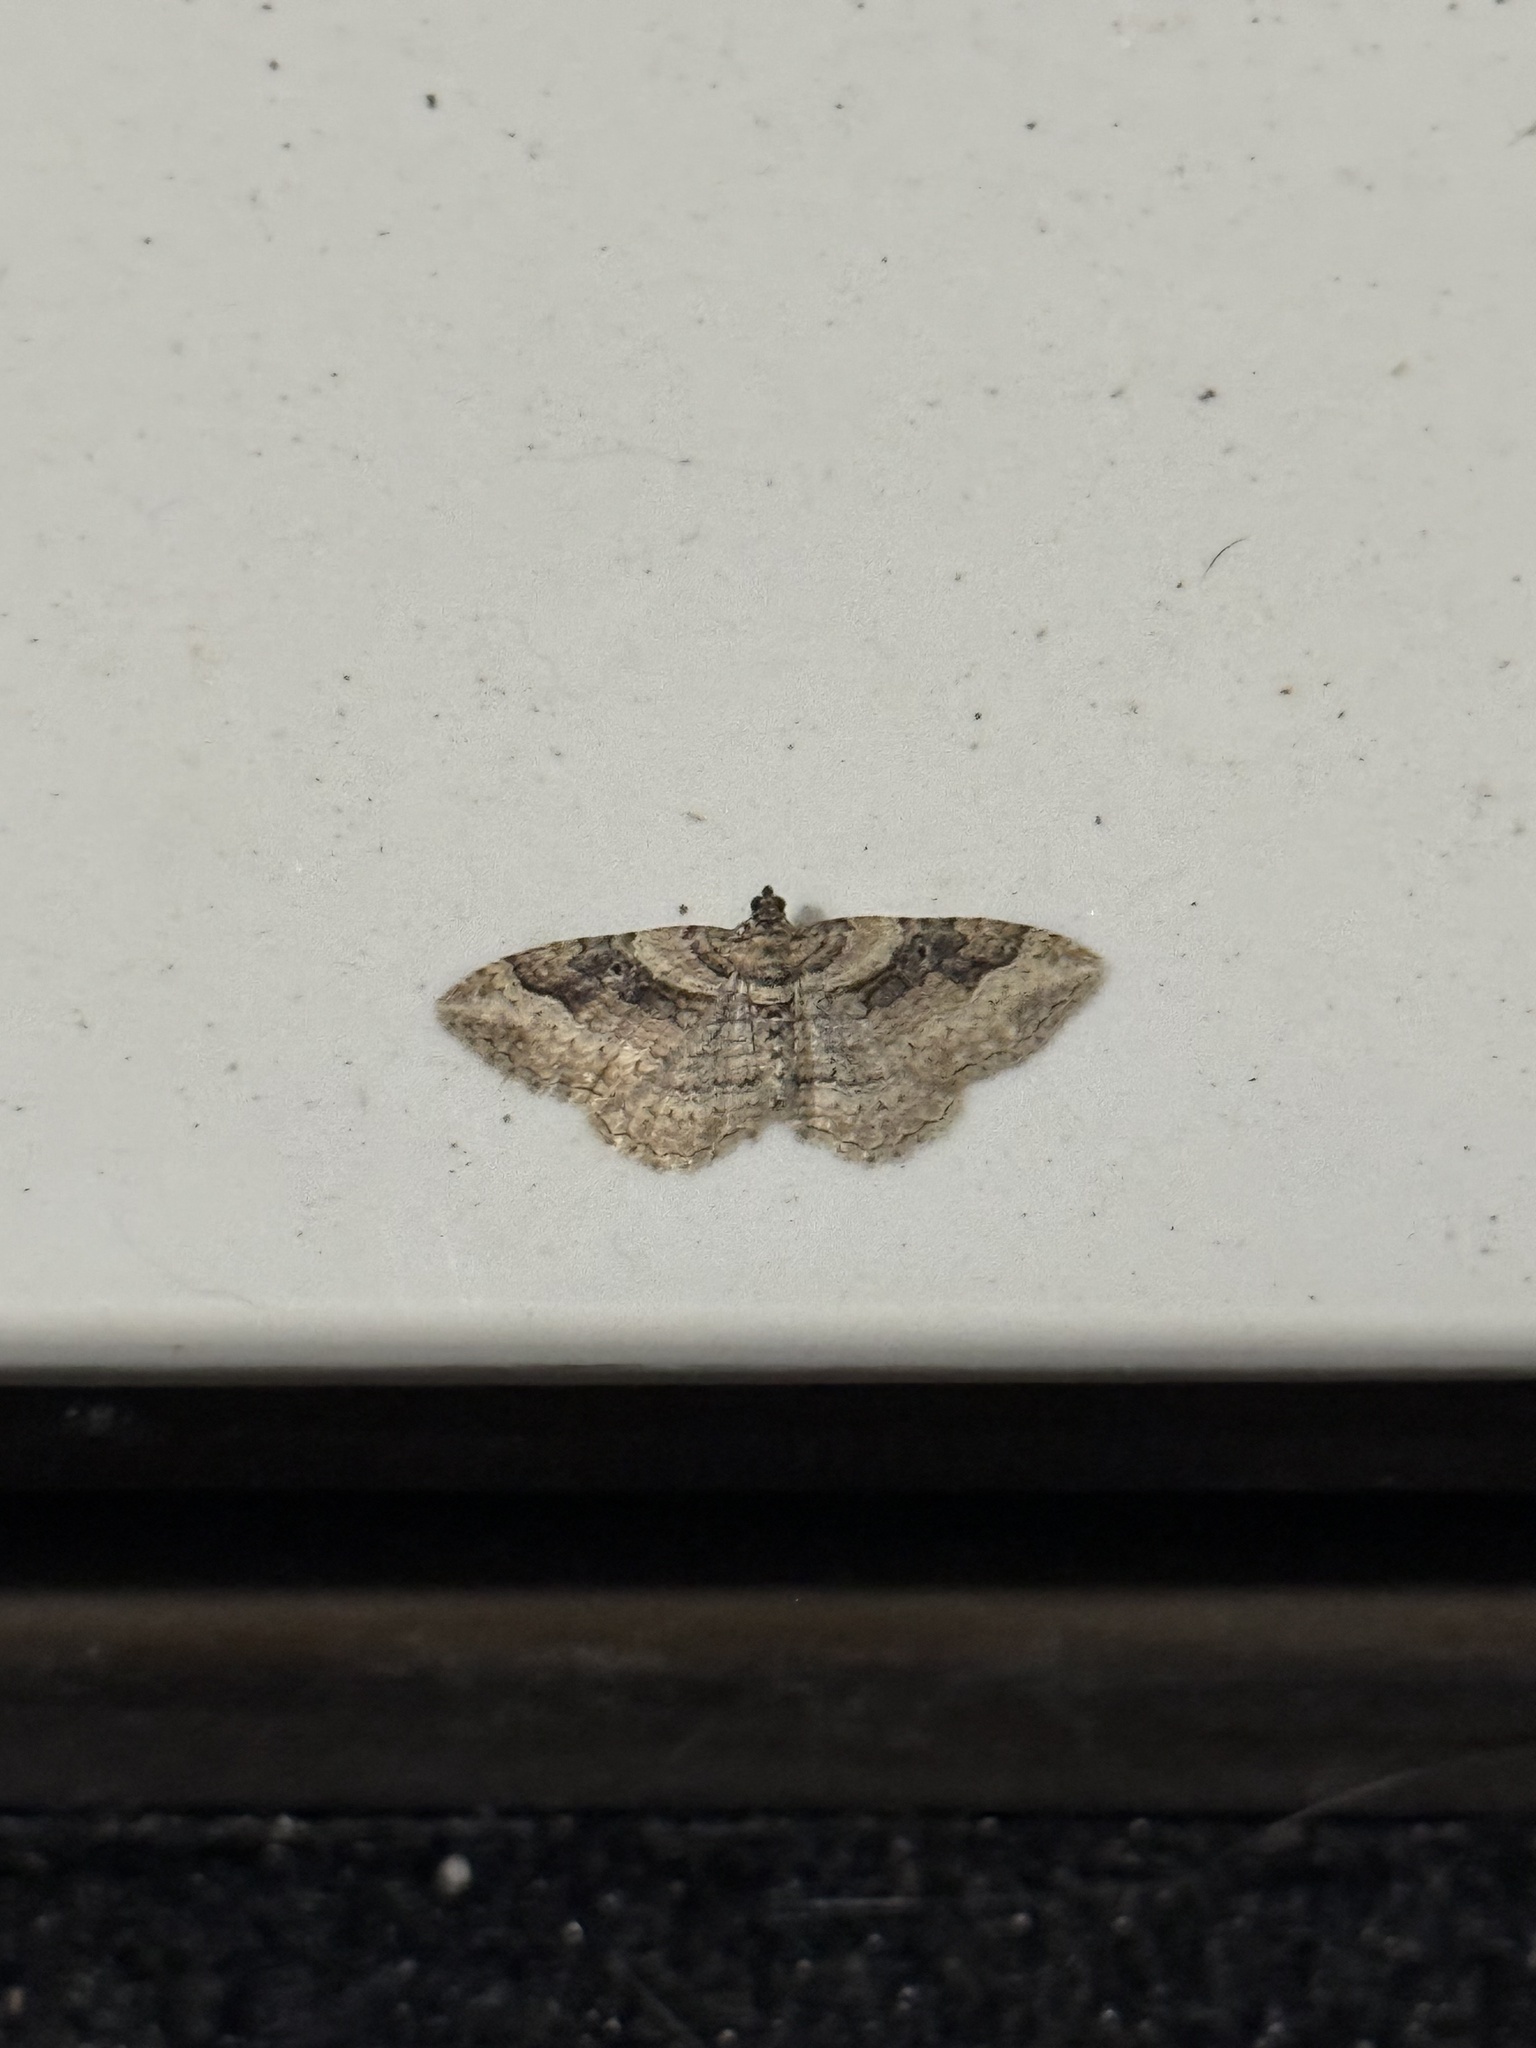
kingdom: Animalia
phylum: Arthropoda
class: Insecta
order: Lepidoptera
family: Geometridae
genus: Costaconvexa
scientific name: Costaconvexa centrostrigaria
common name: Bent-line carpet
